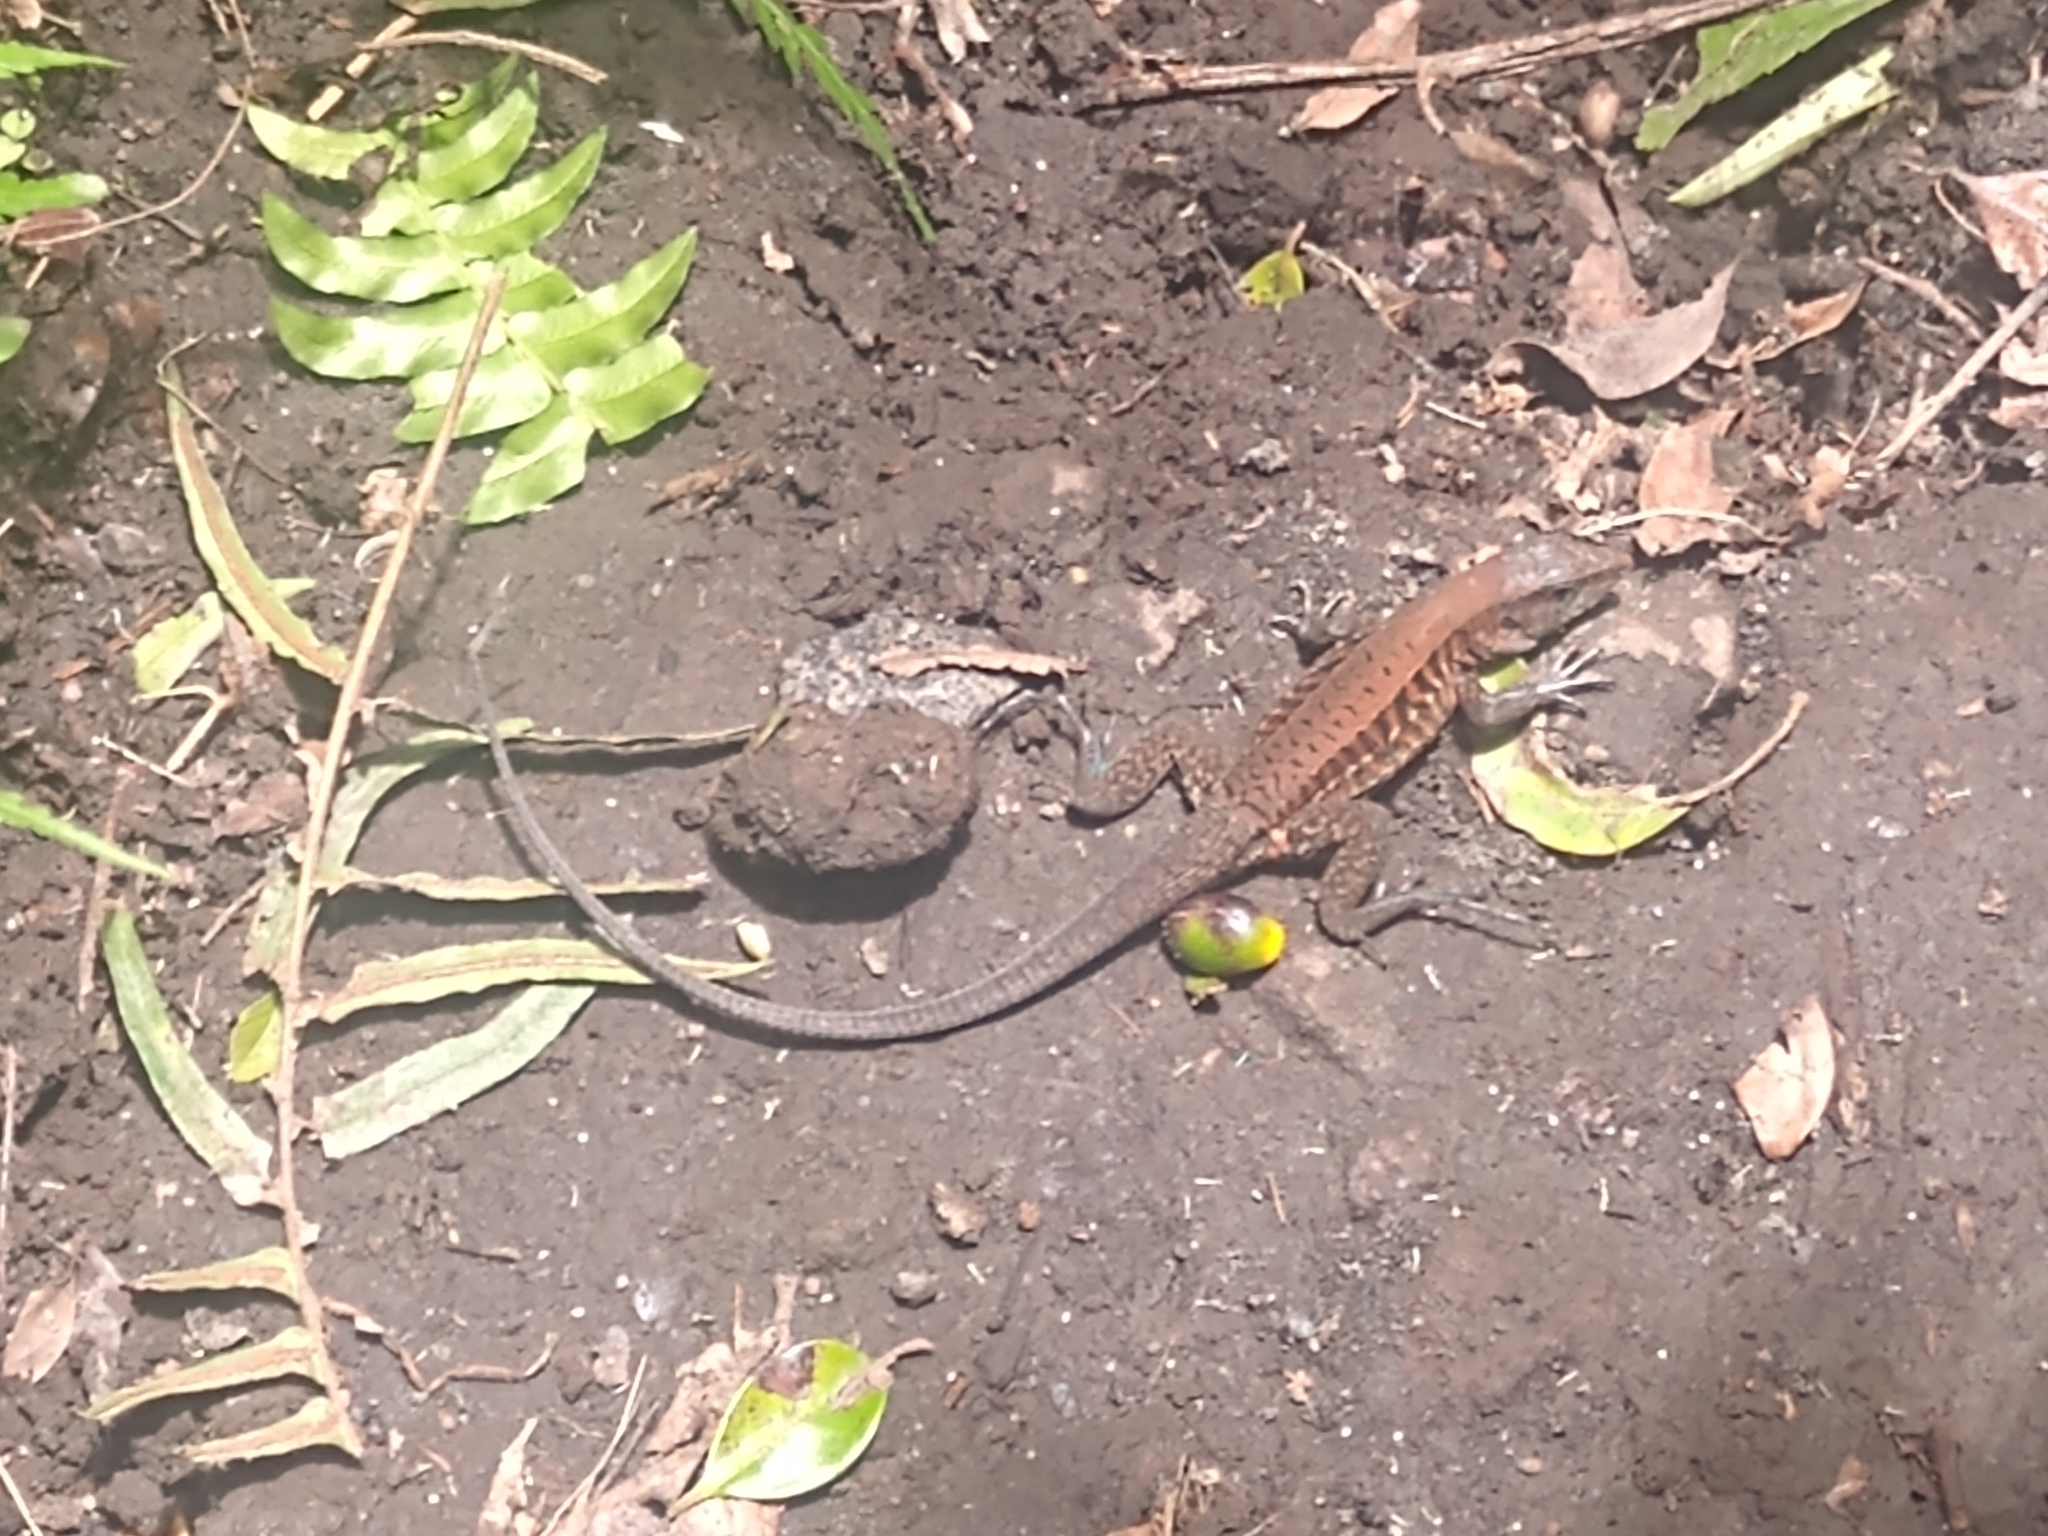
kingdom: Animalia
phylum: Chordata
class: Squamata
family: Teiidae
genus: Holcosus
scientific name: Holcosus undulatus
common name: Rainbow ameiva
